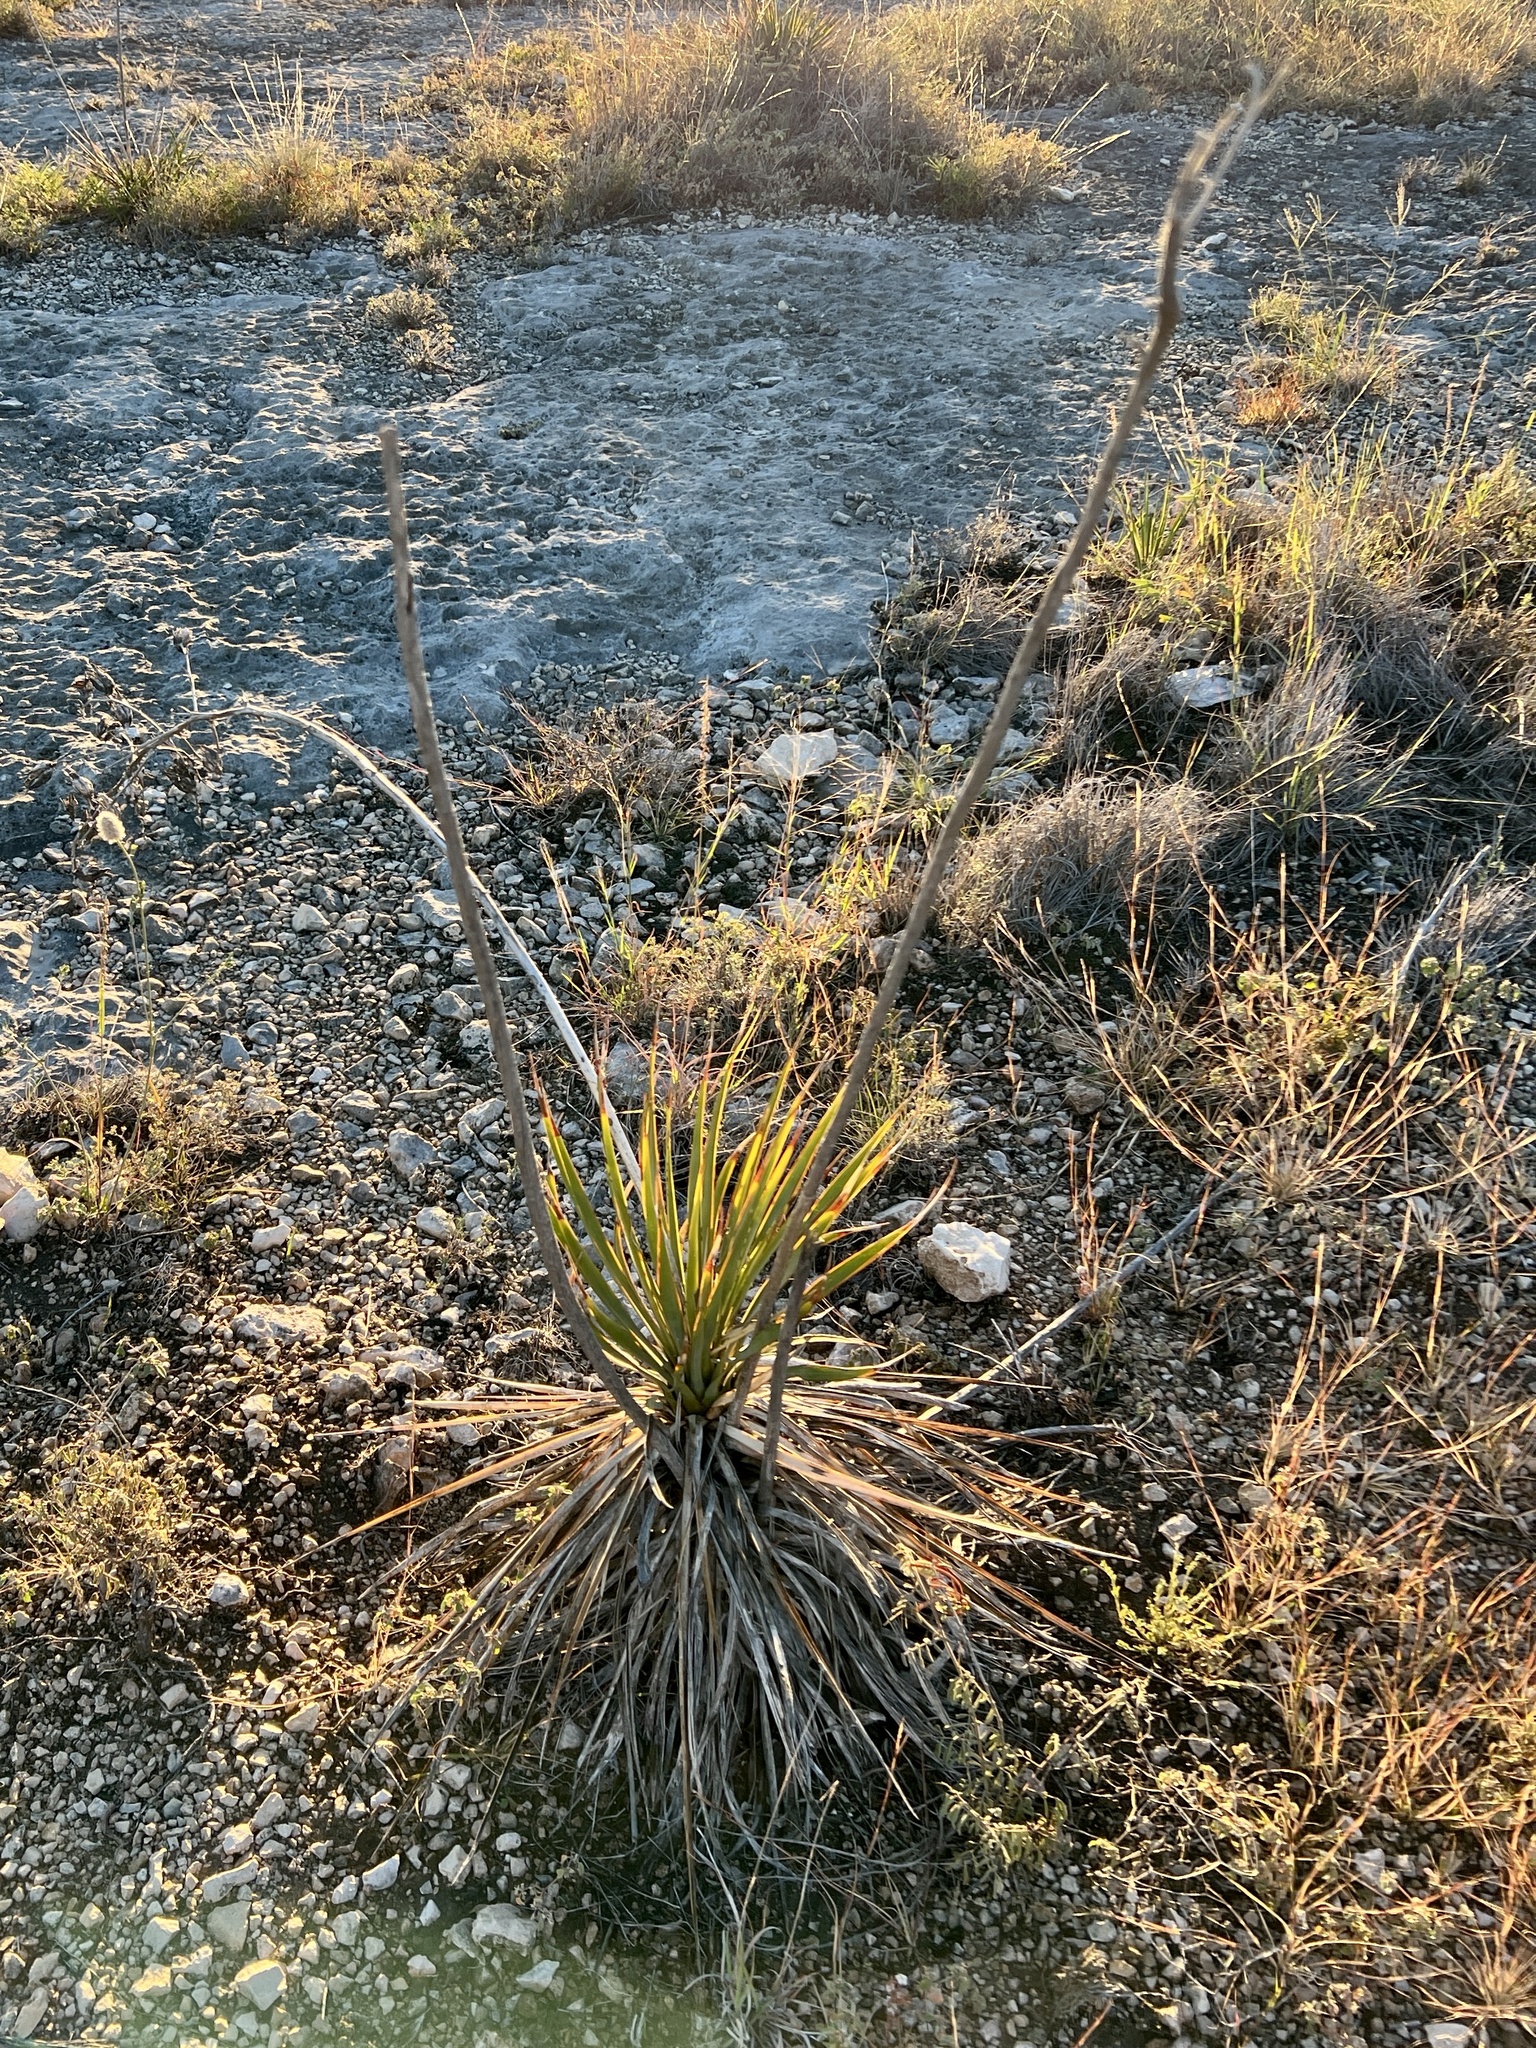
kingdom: Plantae
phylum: Tracheophyta
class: Liliopsida
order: Asparagales
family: Asparagaceae
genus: Yucca
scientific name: Yucca reverchonii
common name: San angelo yucca
